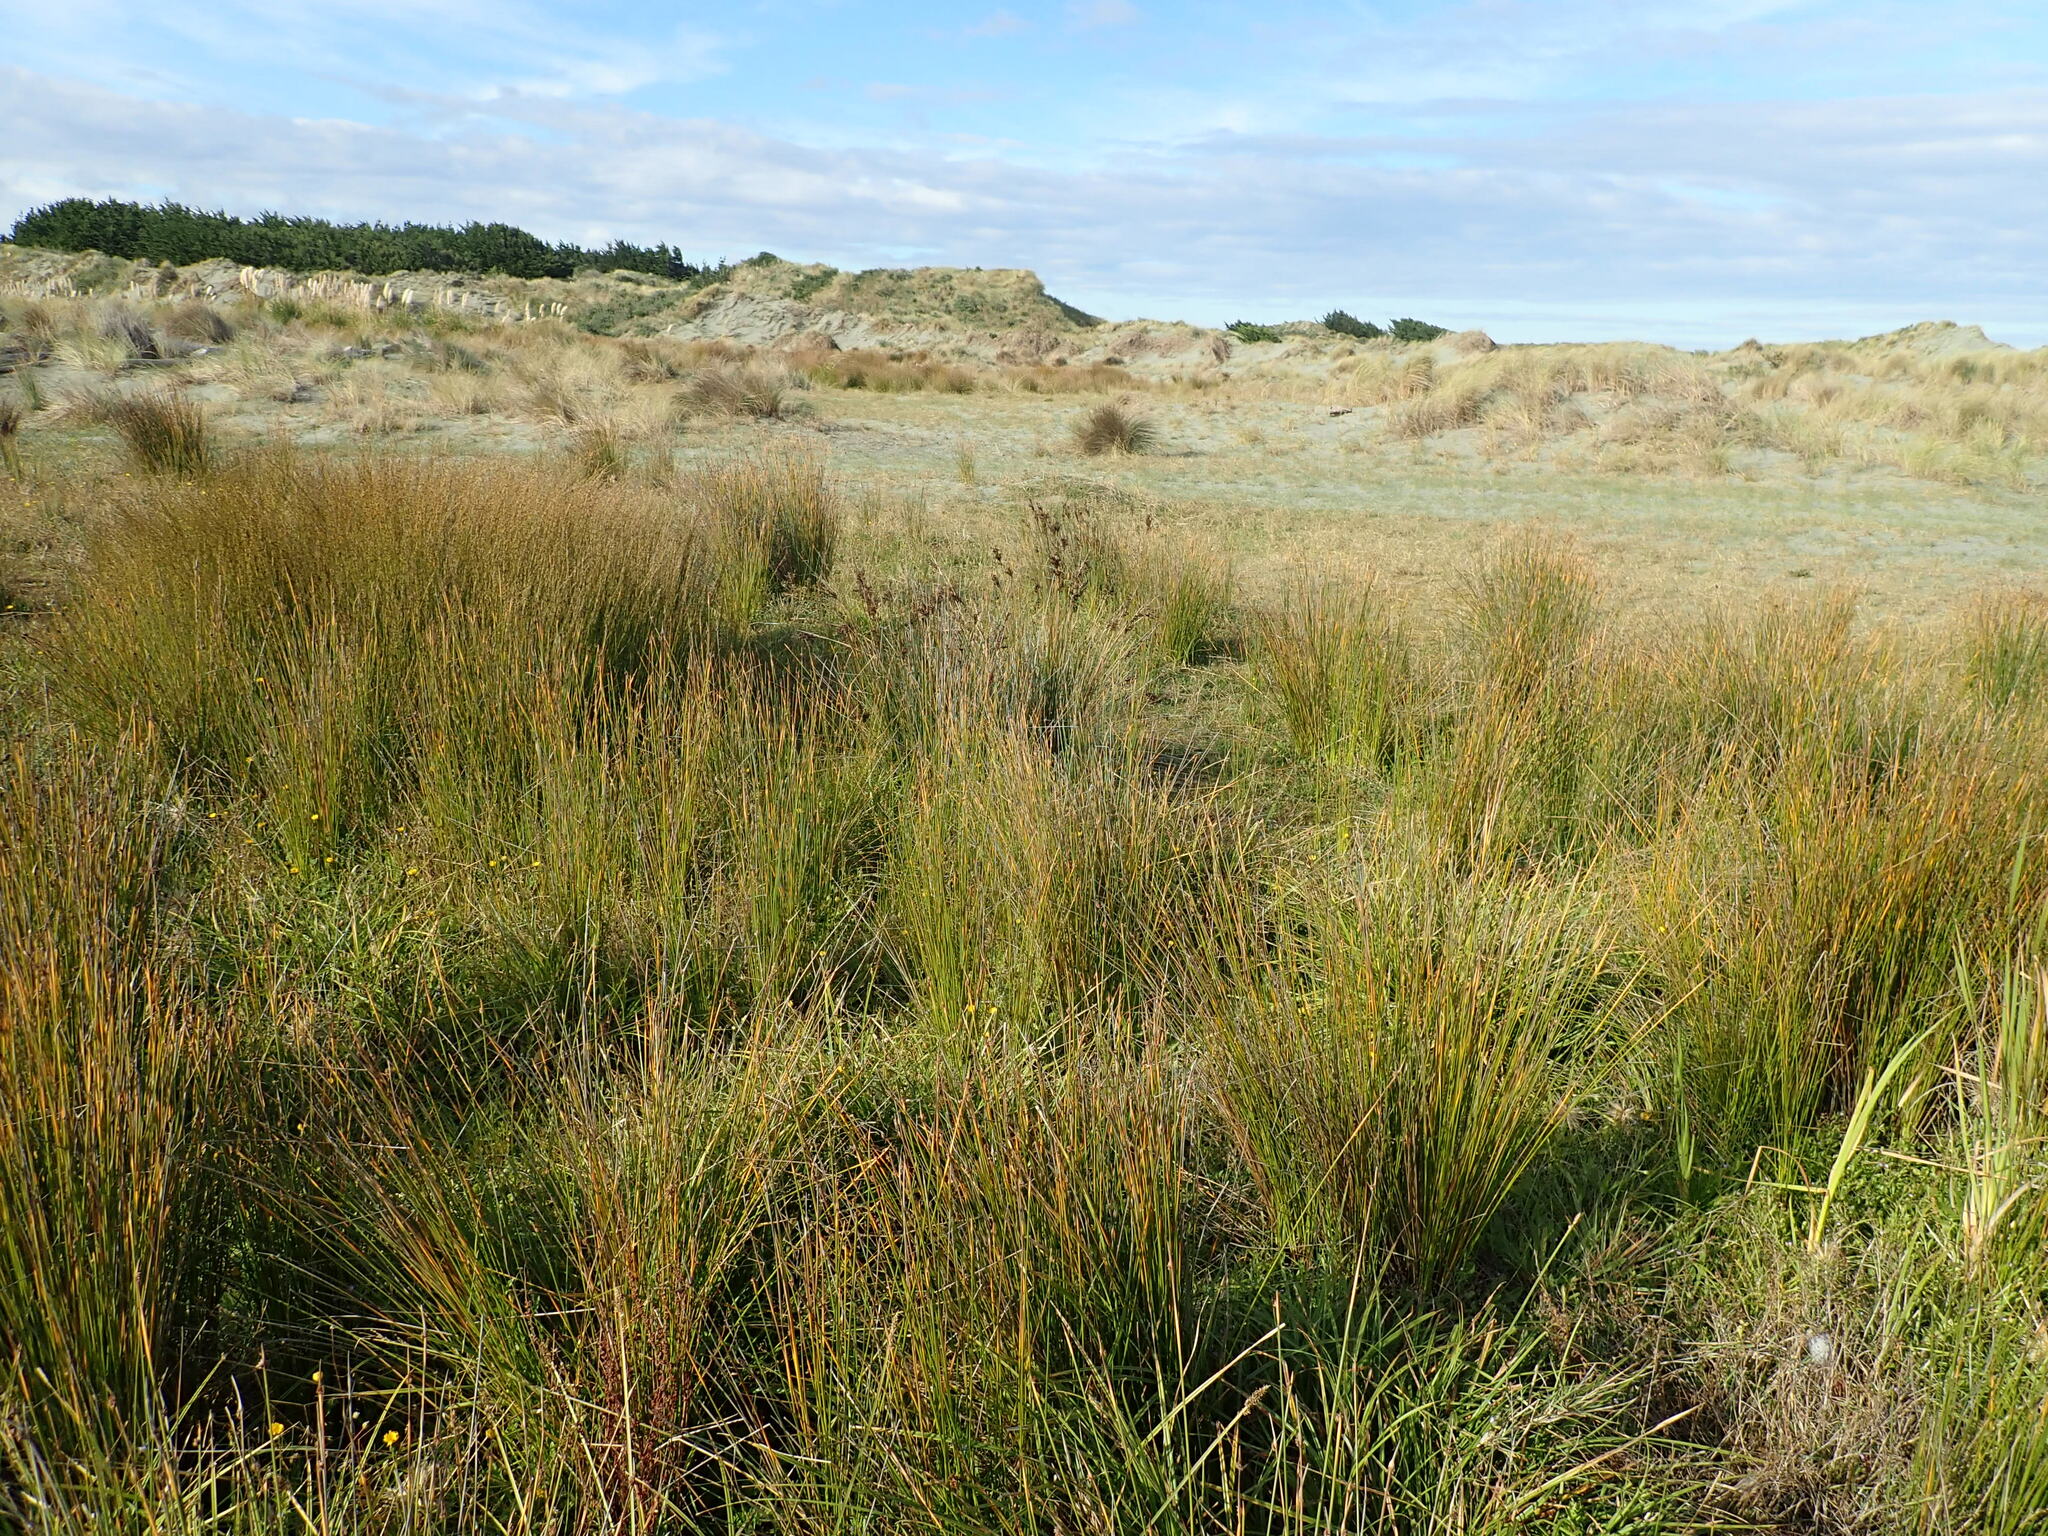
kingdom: Plantae
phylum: Tracheophyta
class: Liliopsida
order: Poales
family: Juncaceae
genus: Juncus
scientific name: Juncus kraussii
